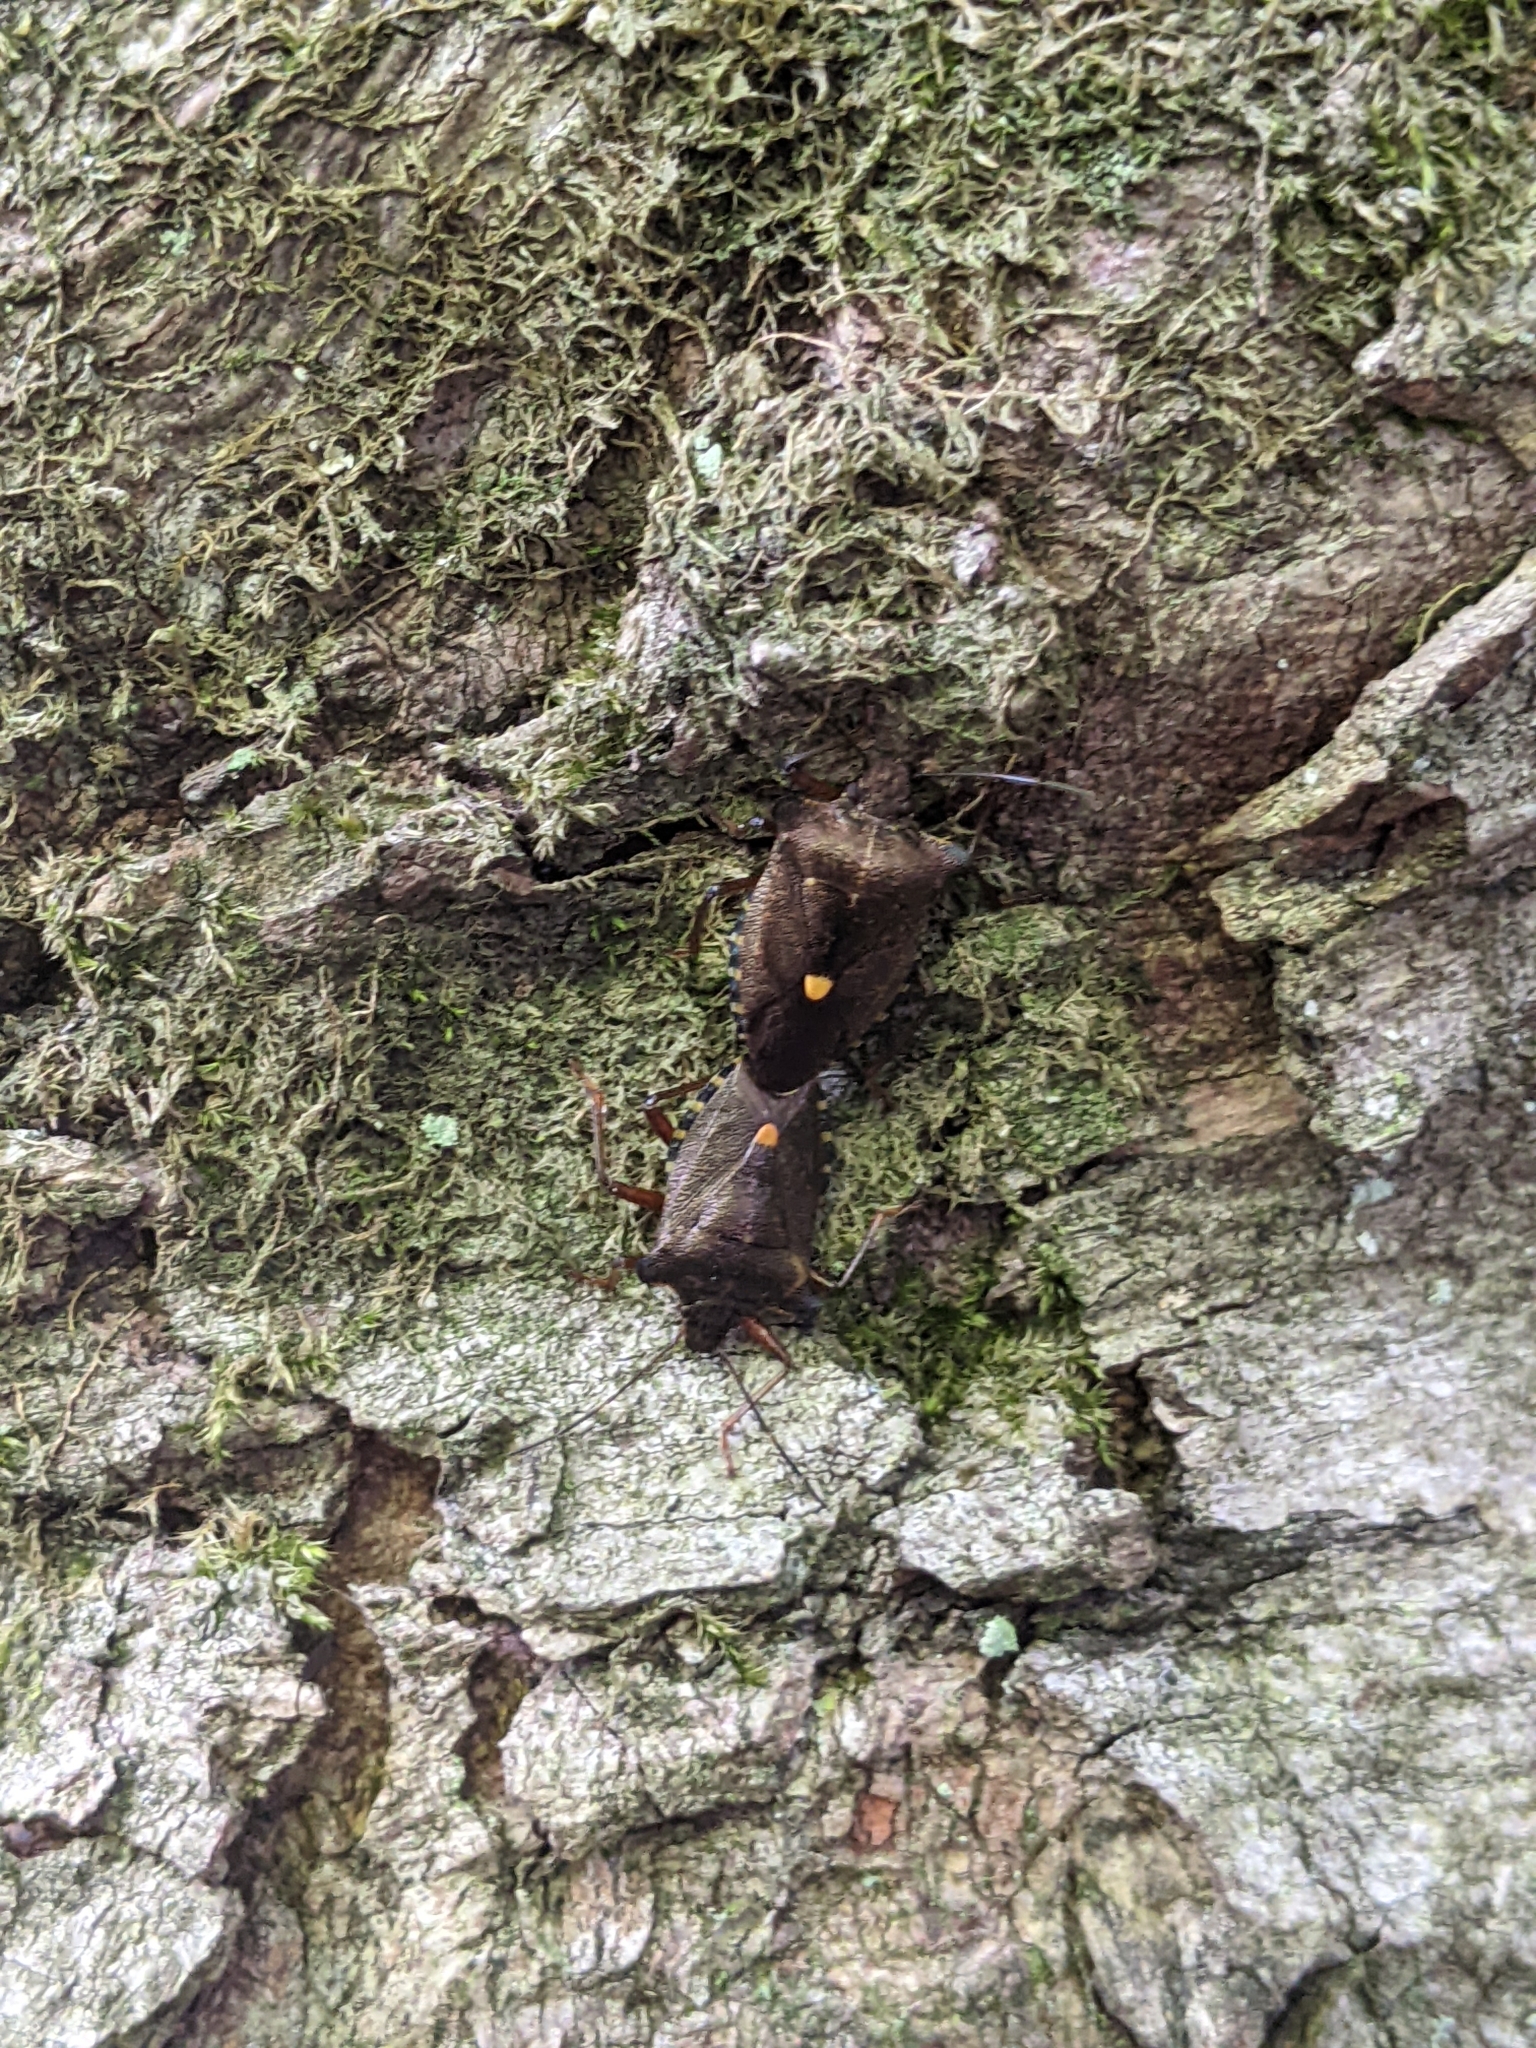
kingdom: Animalia
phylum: Arthropoda
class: Insecta
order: Hemiptera
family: Pentatomidae
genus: Pentatoma
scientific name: Pentatoma rufipes
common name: Forest bug
